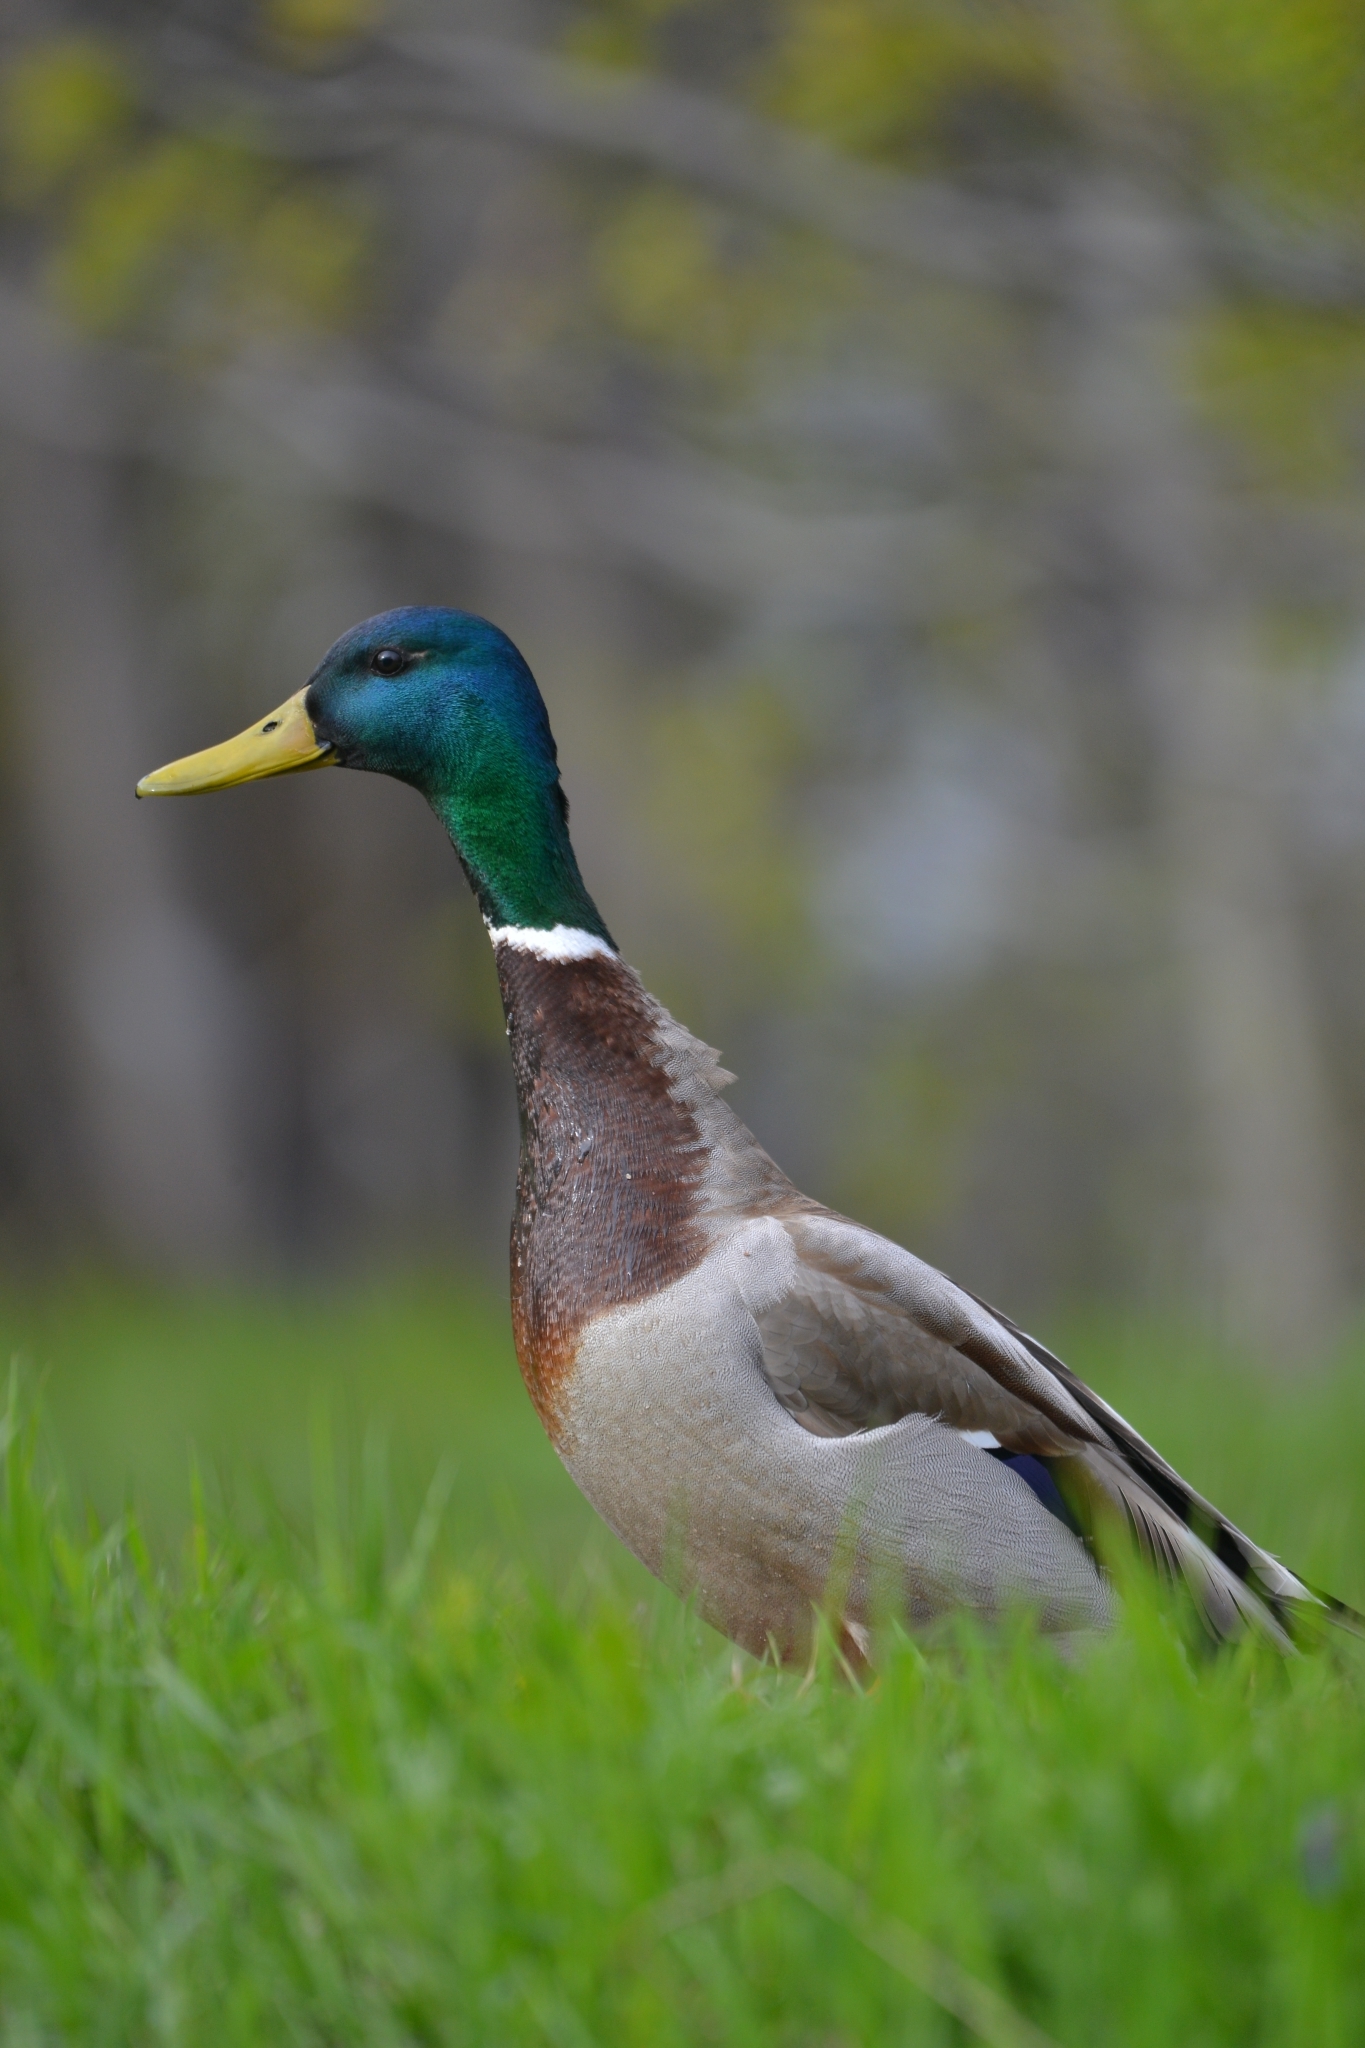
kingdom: Animalia
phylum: Chordata
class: Aves
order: Anseriformes
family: Anatidae
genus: Anas
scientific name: Anas platyrhynchos
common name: Mallard
